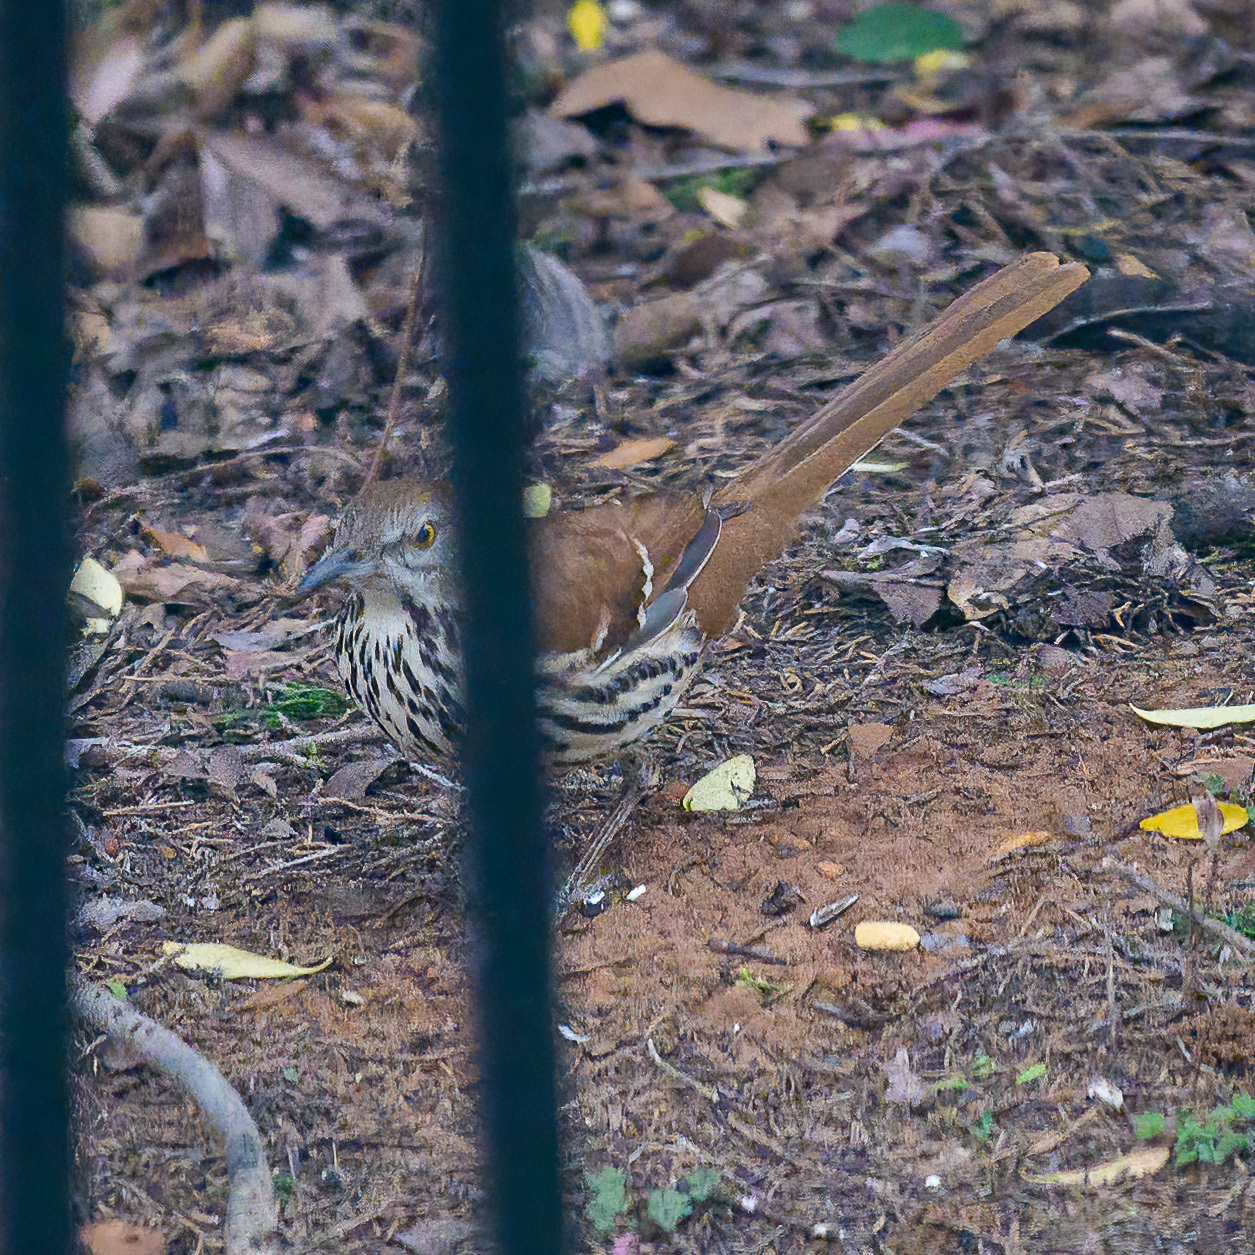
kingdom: Animalia
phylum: Chordata
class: Aves
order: Passeriformes
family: Mimidae
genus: Toxostoma
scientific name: Toxostoma rufum
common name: Brown thrasher
